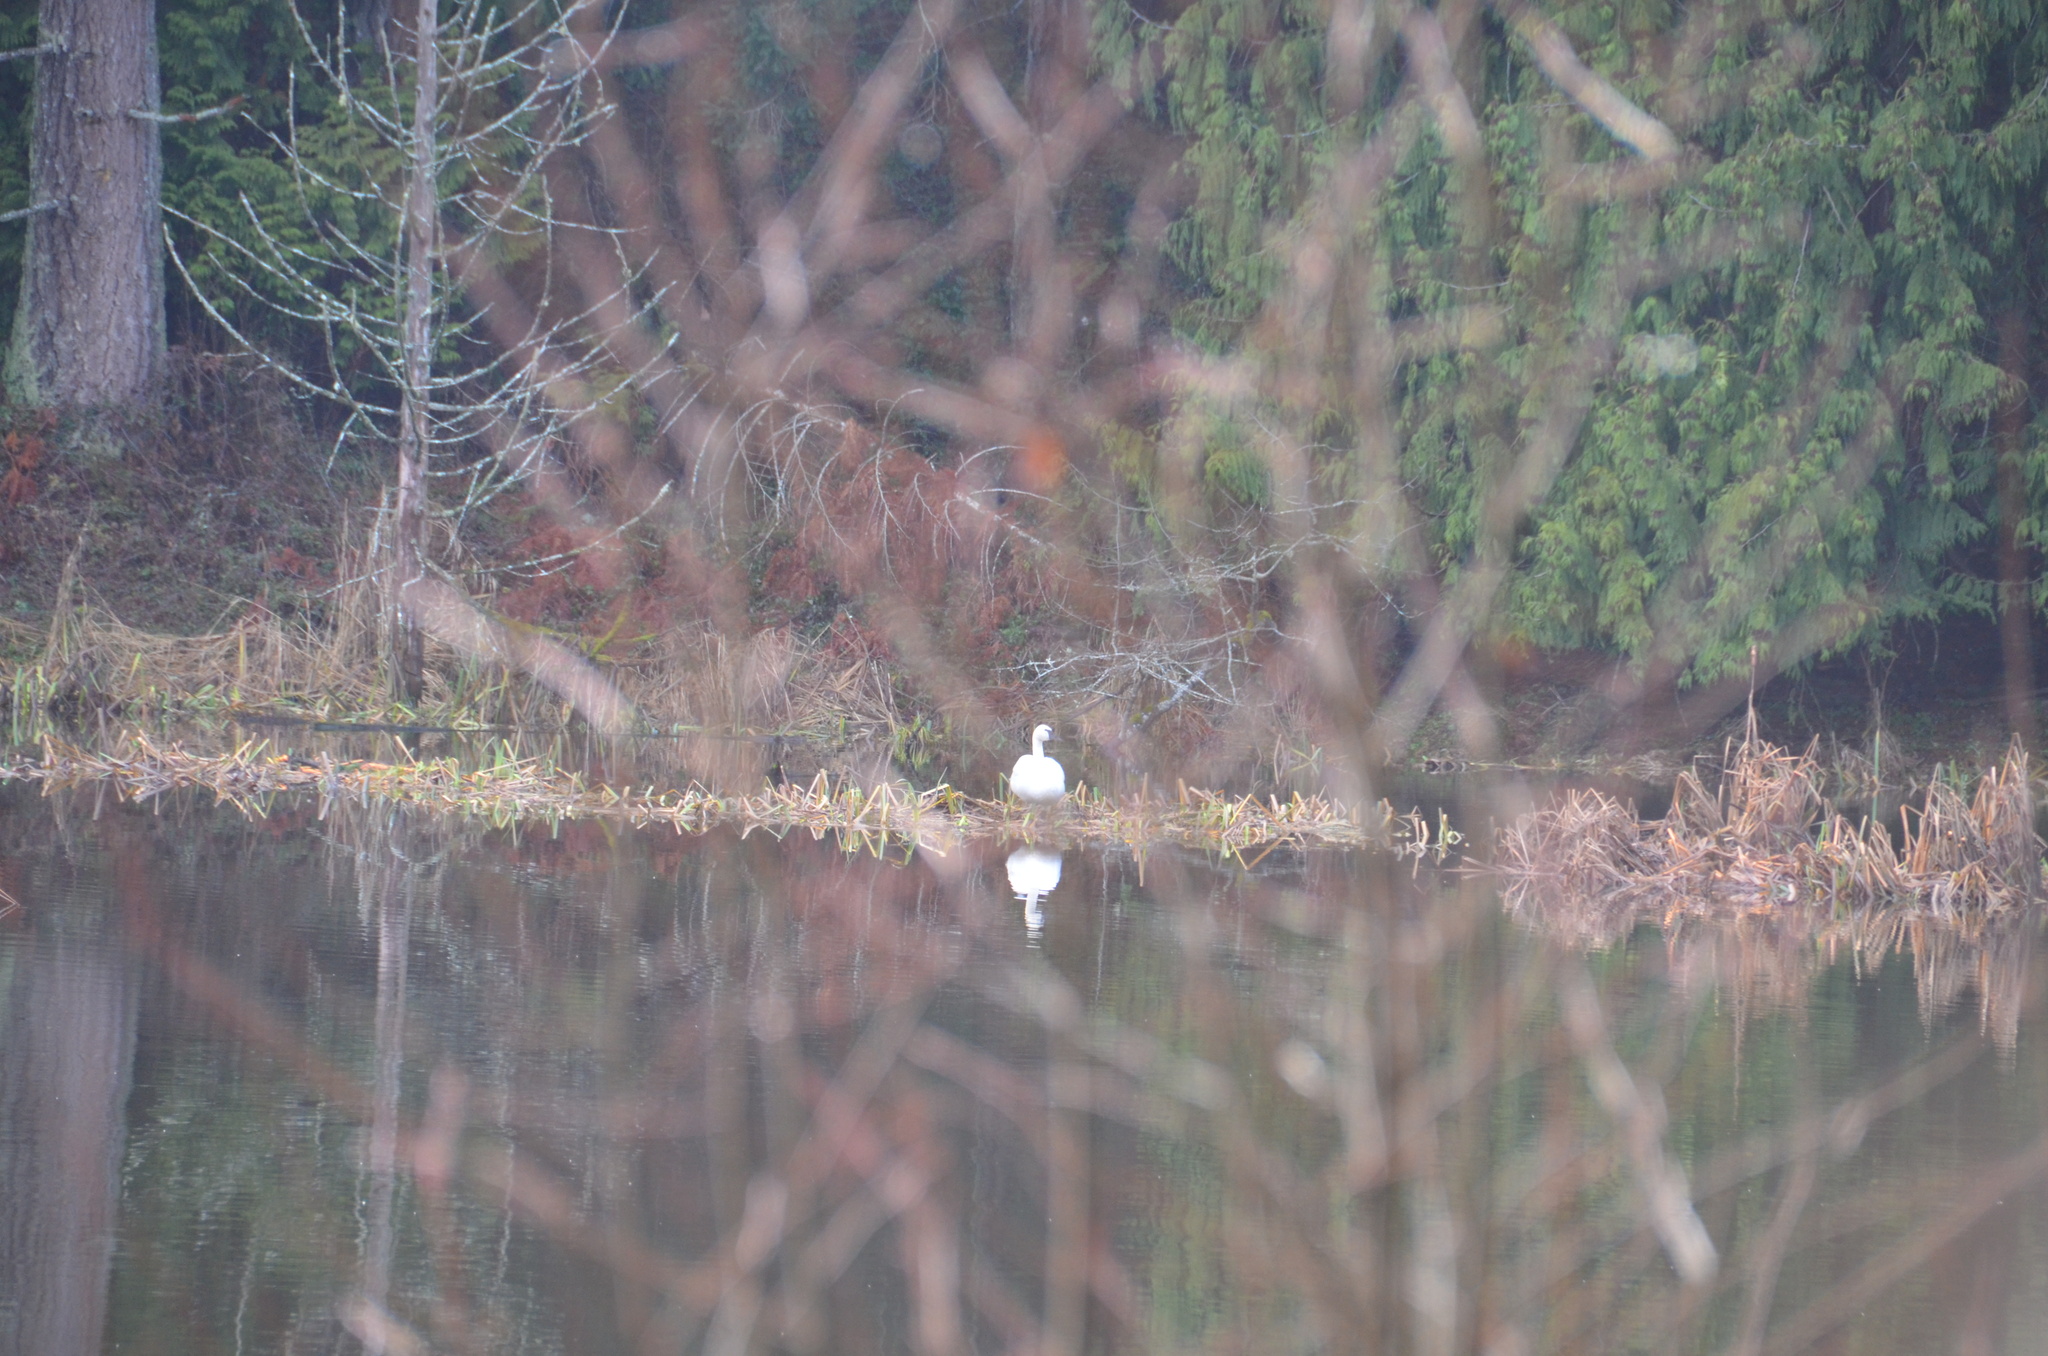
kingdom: Animalia
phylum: Chordata
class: Aves
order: Anseriformes
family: Anatidae
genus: Cygnus
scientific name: Cygnus buccinator
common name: Trumpeter swan
